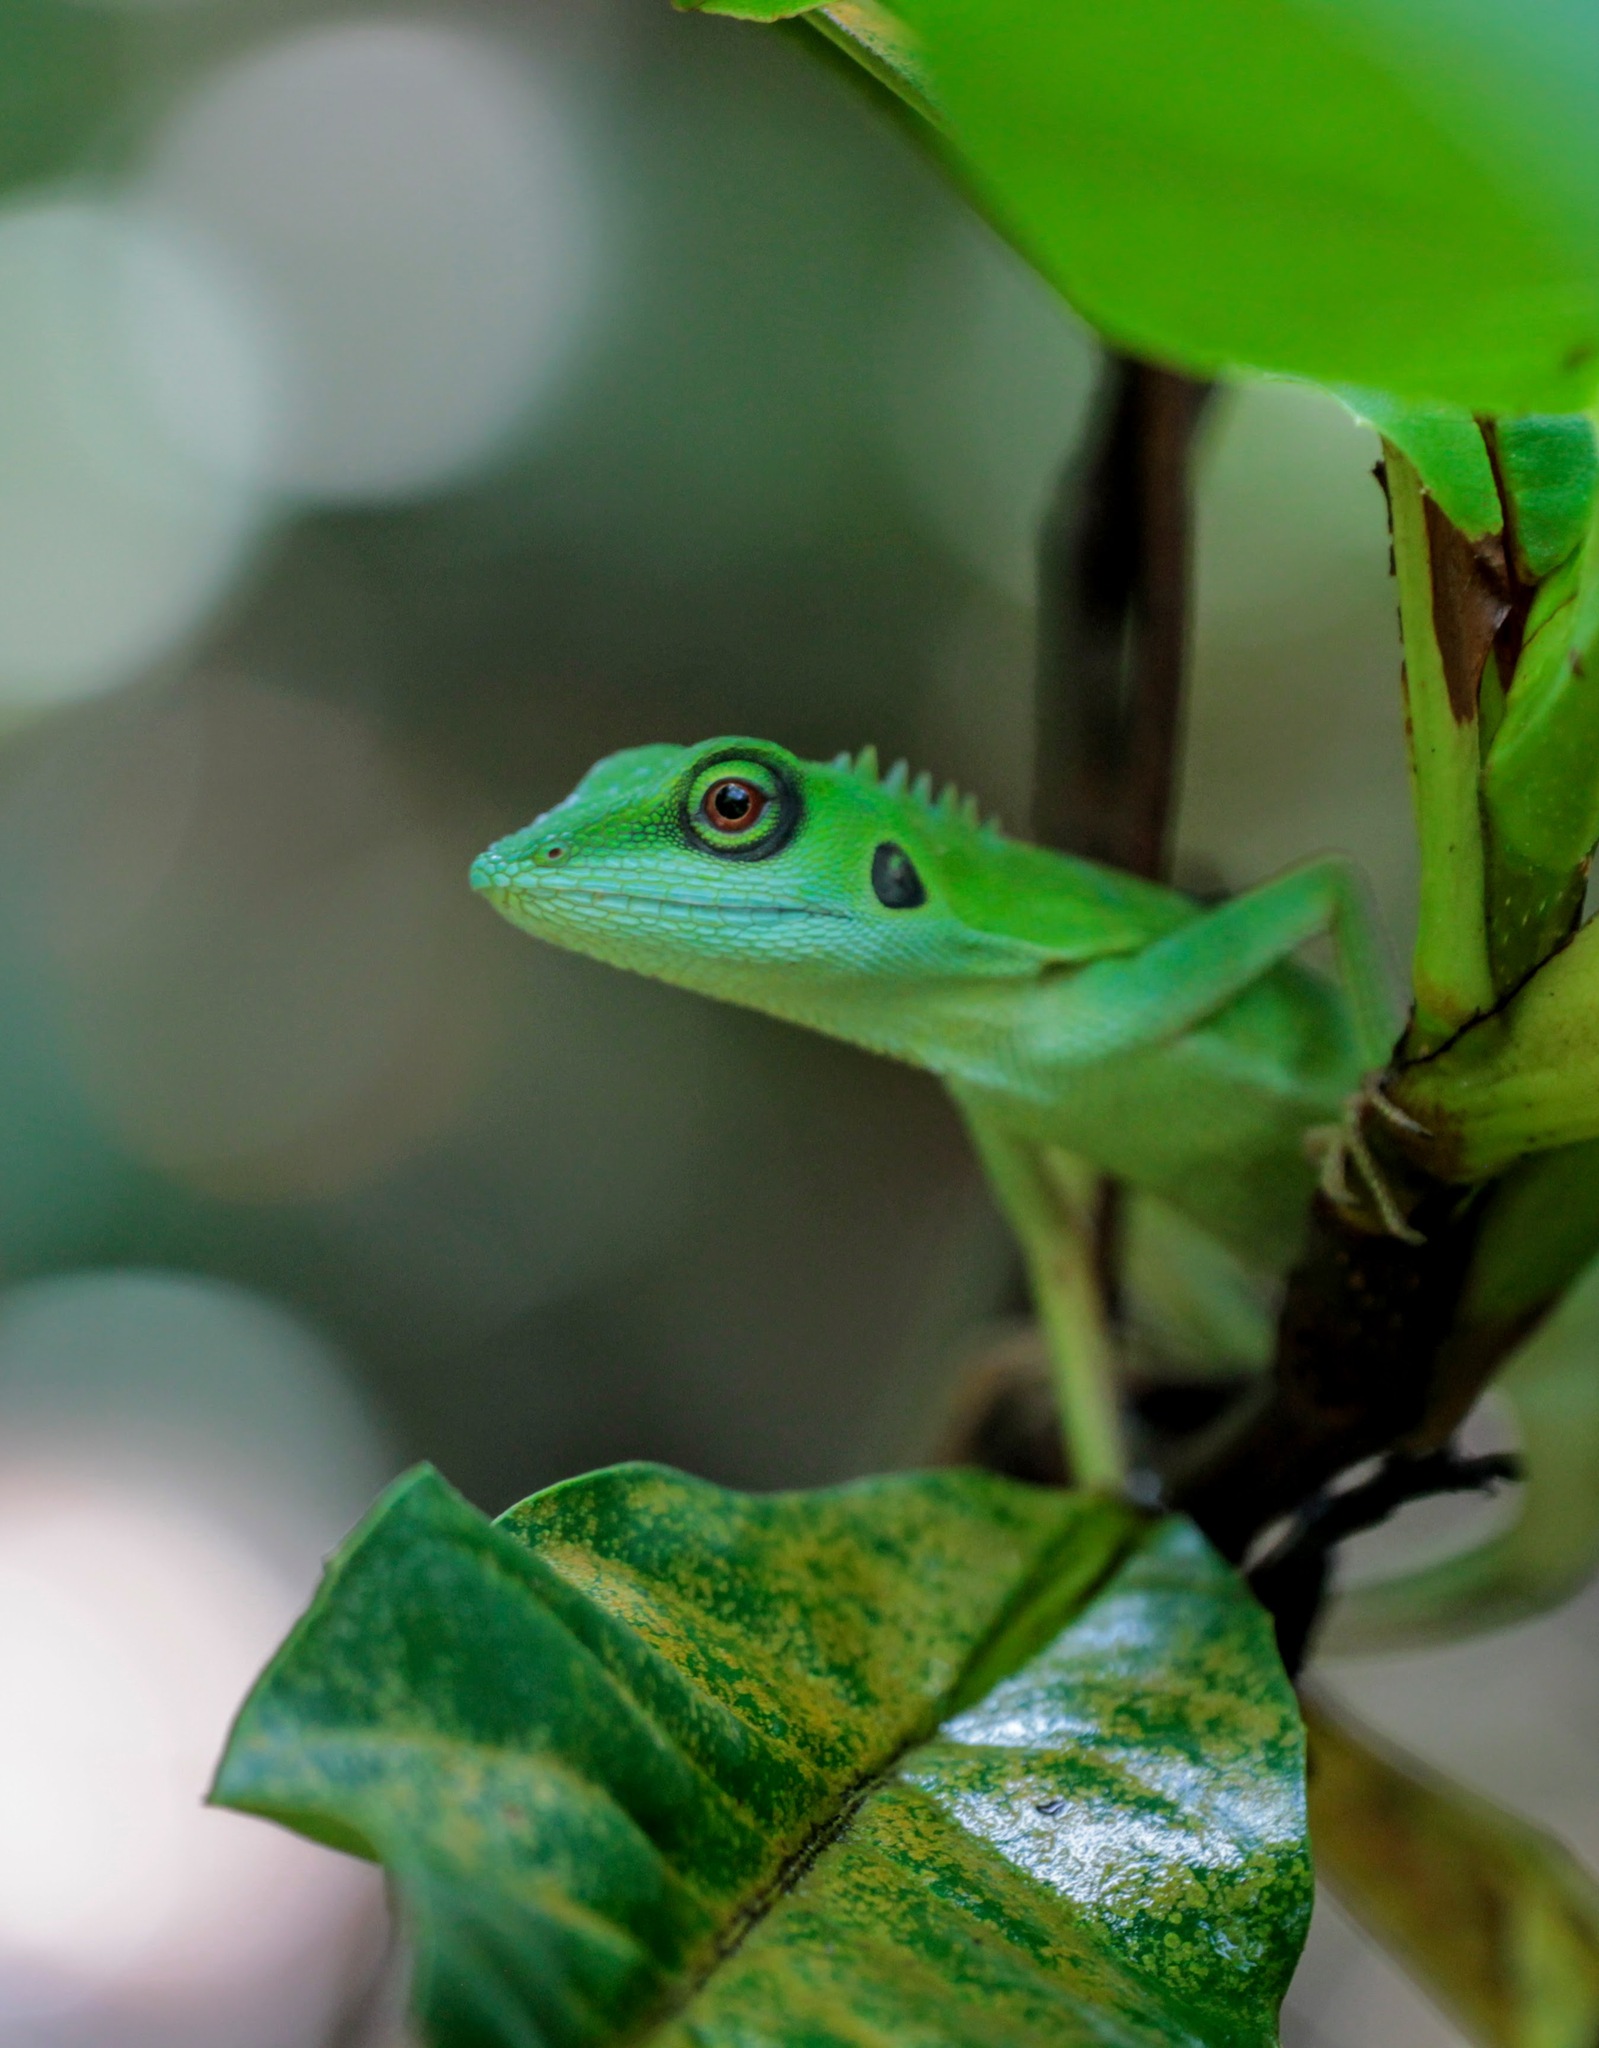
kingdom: Animalia
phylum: Chordata
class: Squamata
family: Agamidae
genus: Bronchocela
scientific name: Bronchocela cristatella
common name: Green crested lizard
